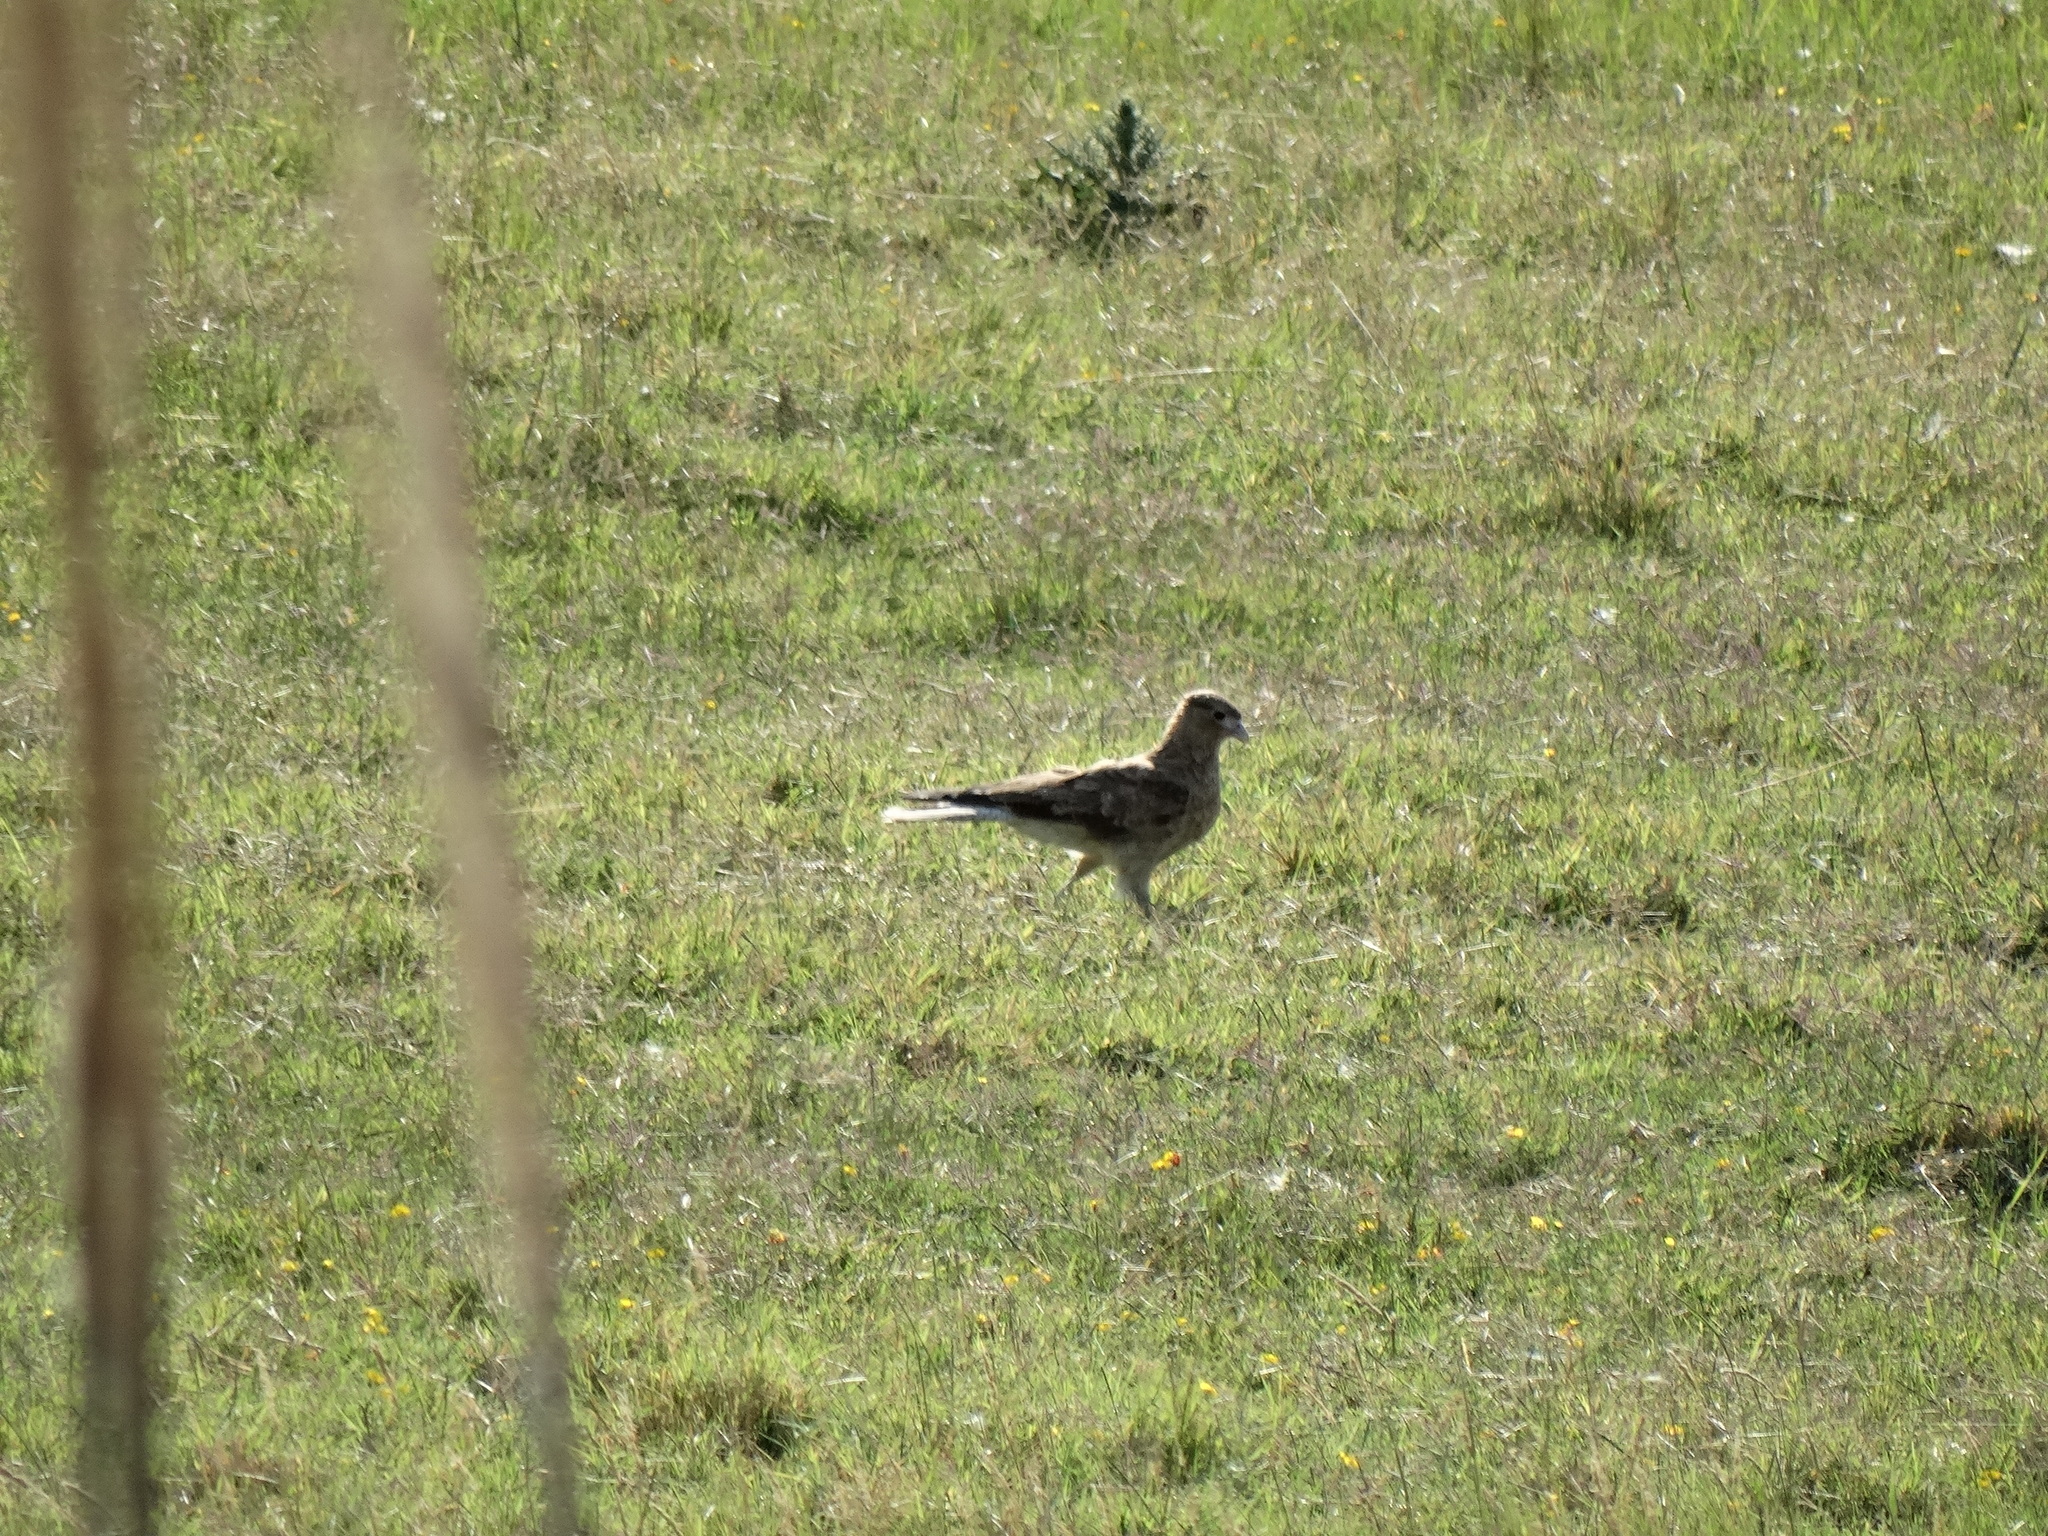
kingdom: Animalia
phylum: Chordata
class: Aves
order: Falconiformes
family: Falconidae
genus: Daptrius
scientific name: Daptrius
